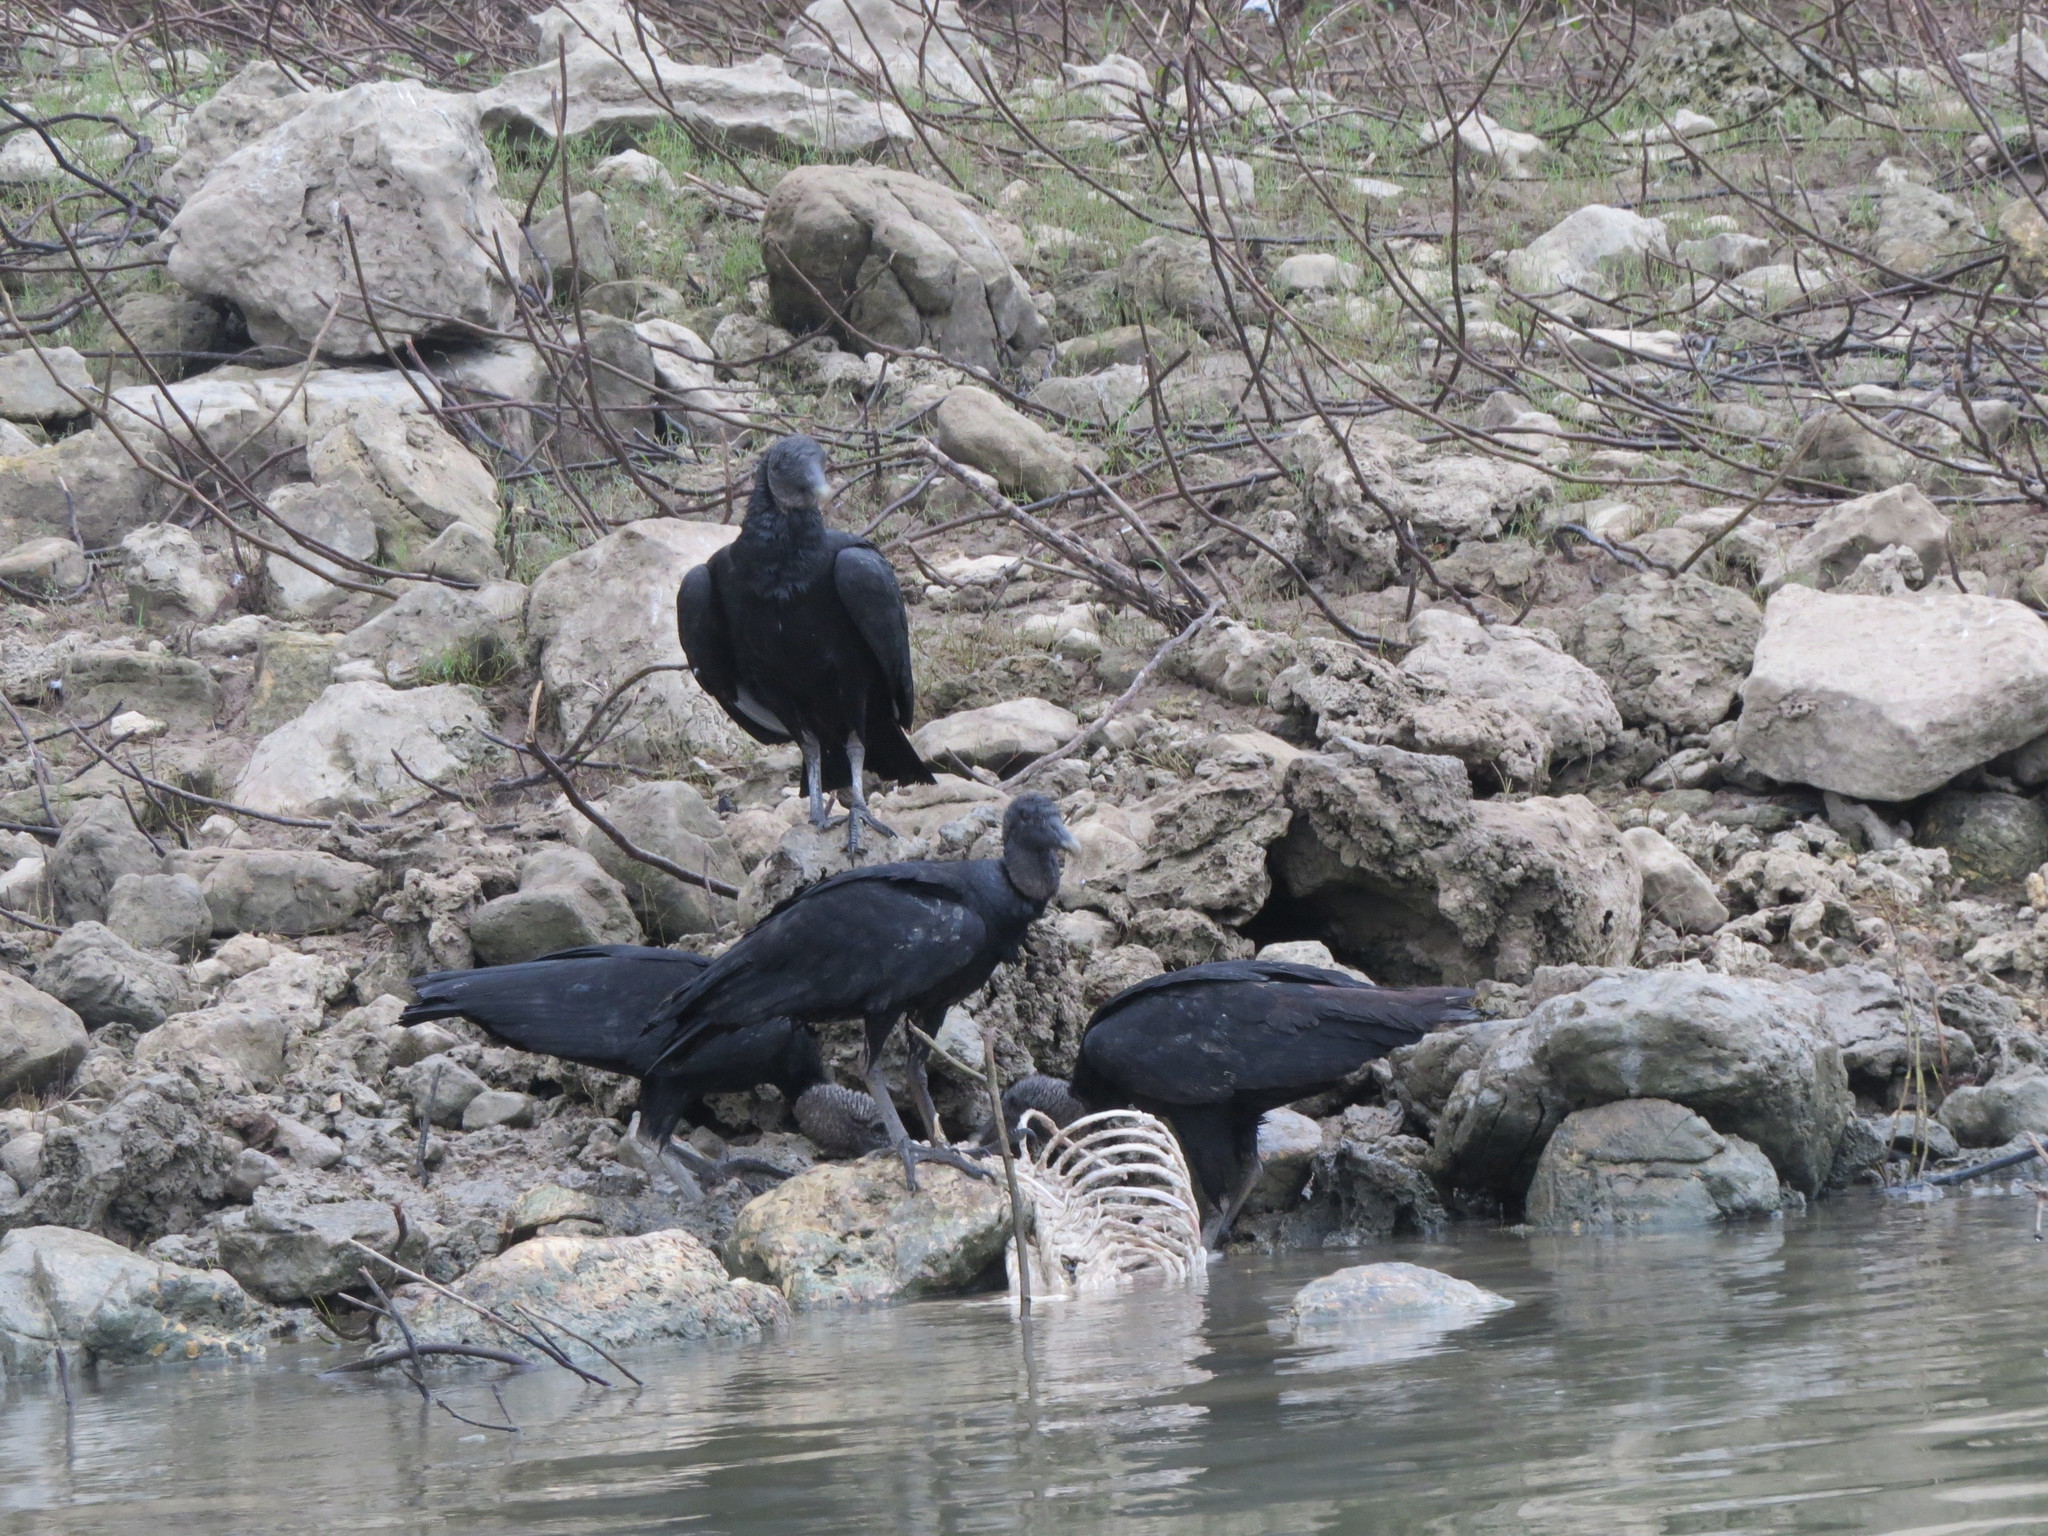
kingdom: Animalia
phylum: Chordata
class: Aves
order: Accipitriformes
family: Cathartidae
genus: Coragyps
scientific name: Coragyps atratus
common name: Black vulture
